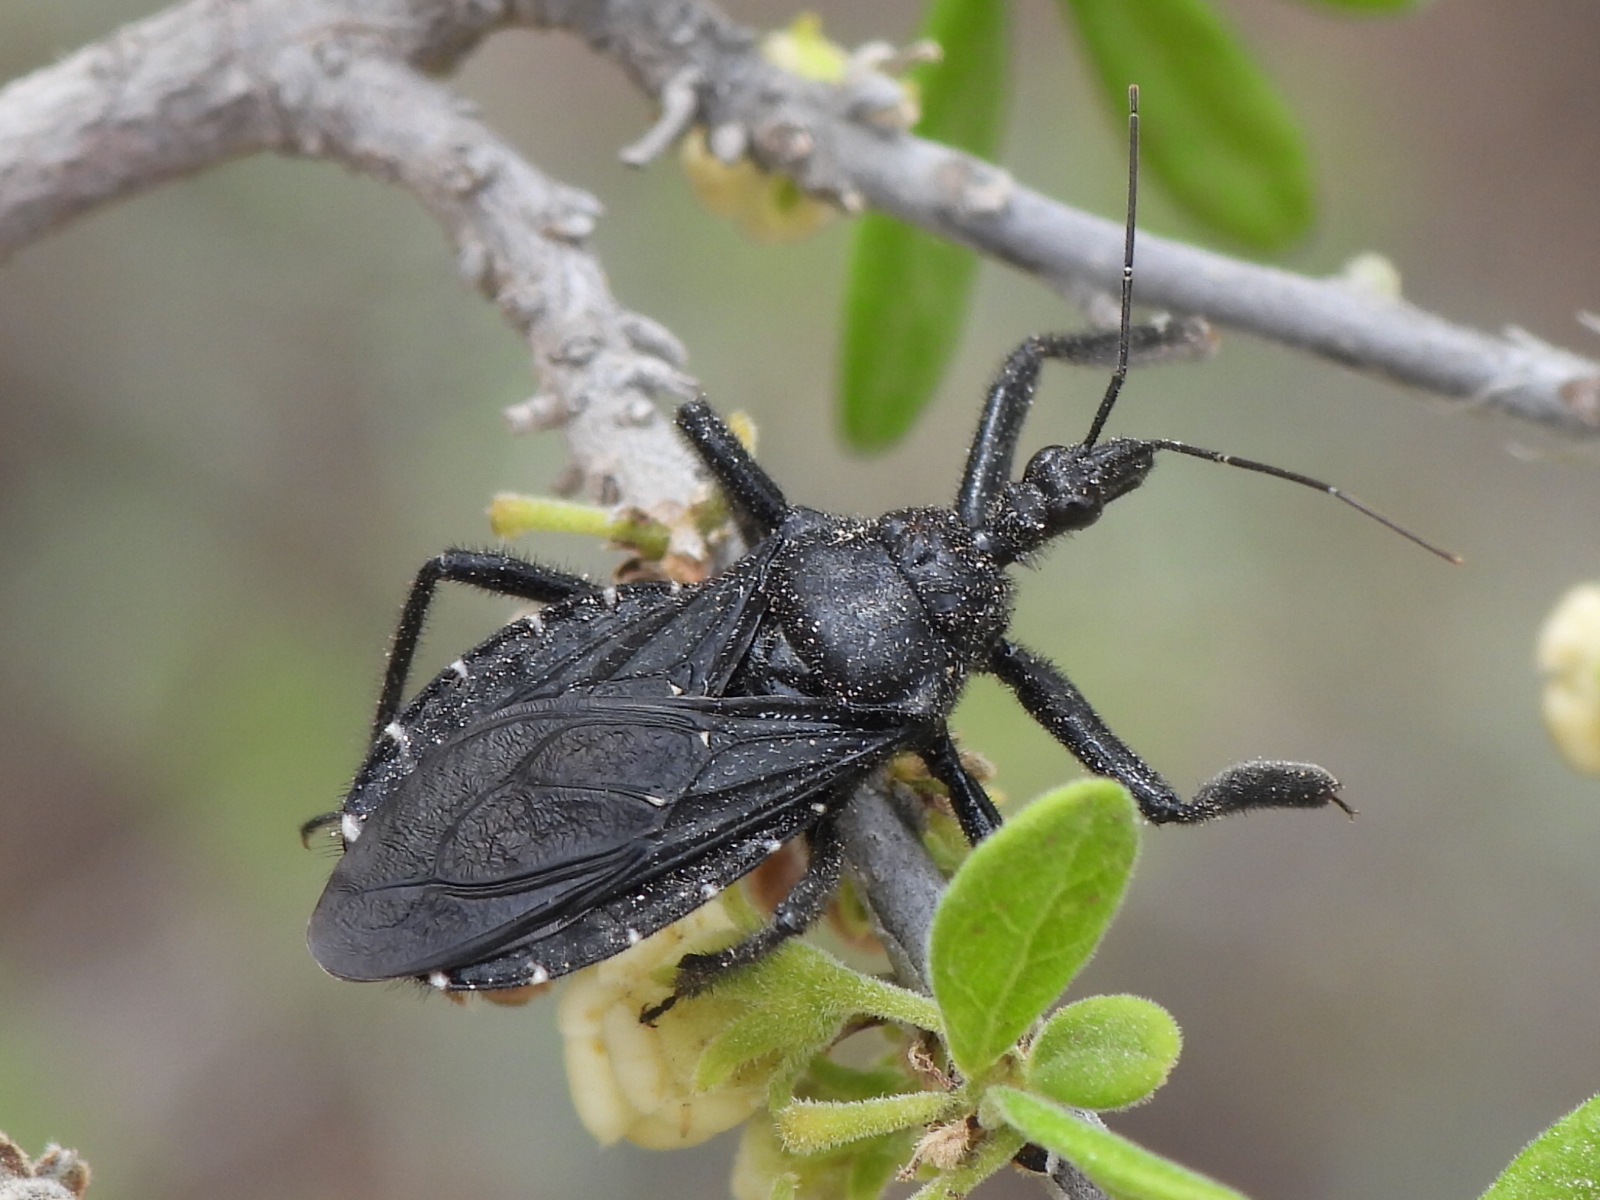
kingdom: Animalia
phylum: Arthropoda
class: Insecta
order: Hemiptera
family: Reduviidae
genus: Apiomerus
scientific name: Apiomerus longispinis
